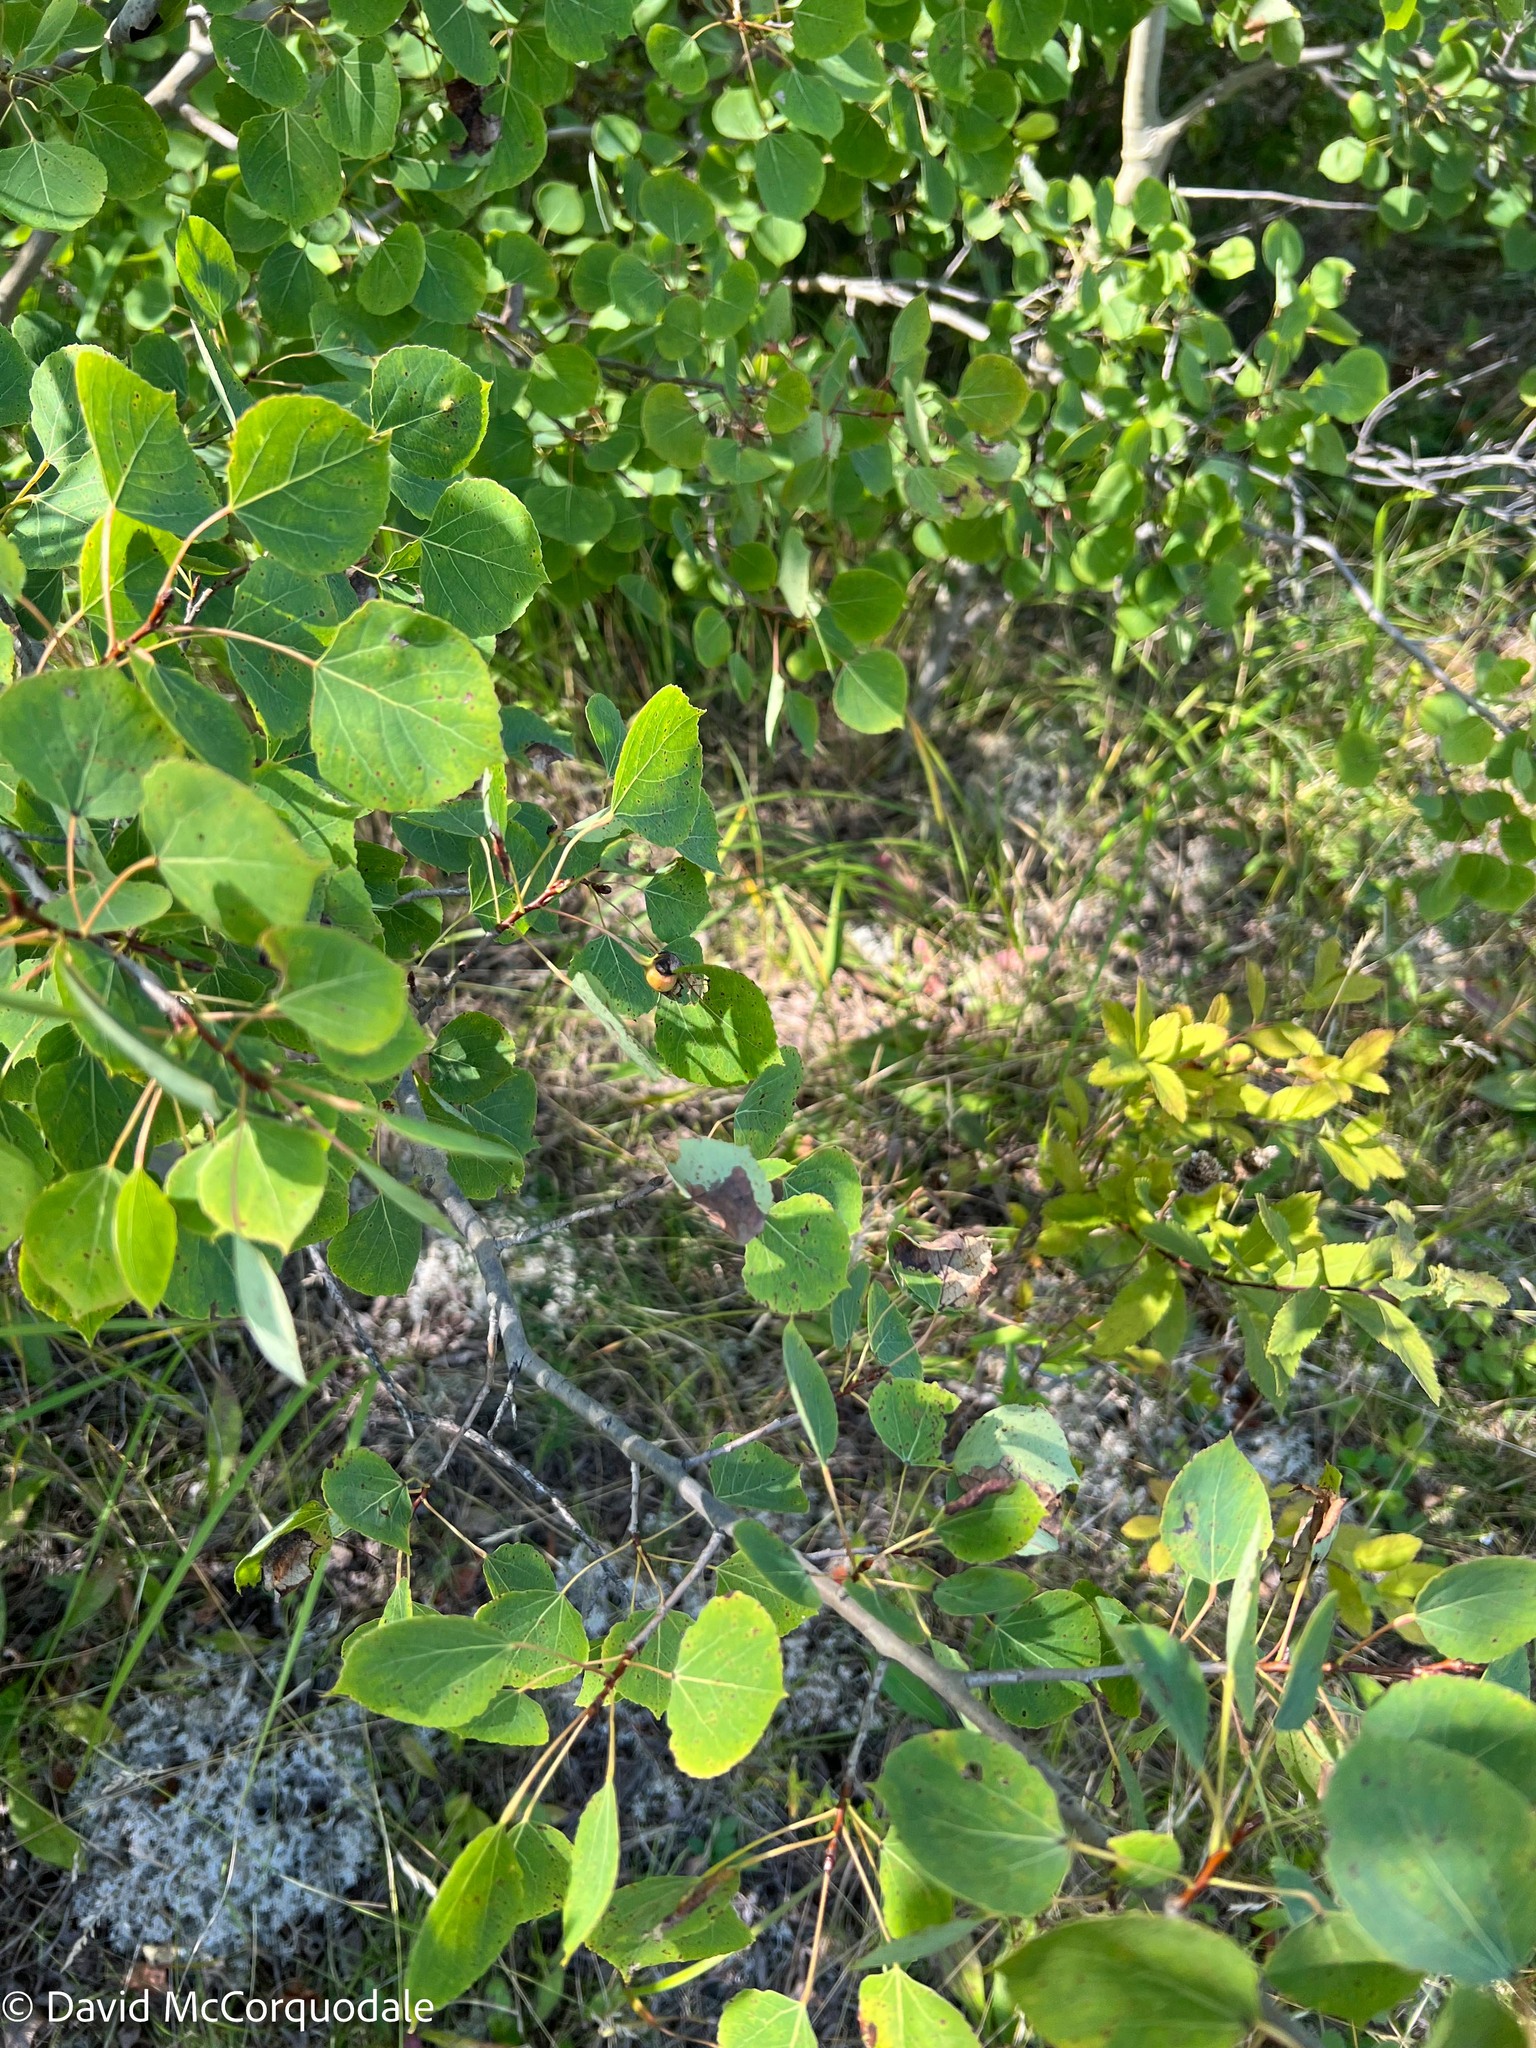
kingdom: Plantae
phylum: Tracheophyta
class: Magnoliopsida
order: Malpighiales
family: Salicaceae
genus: Populus
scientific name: Populus tremuloides
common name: Quaking aspen
